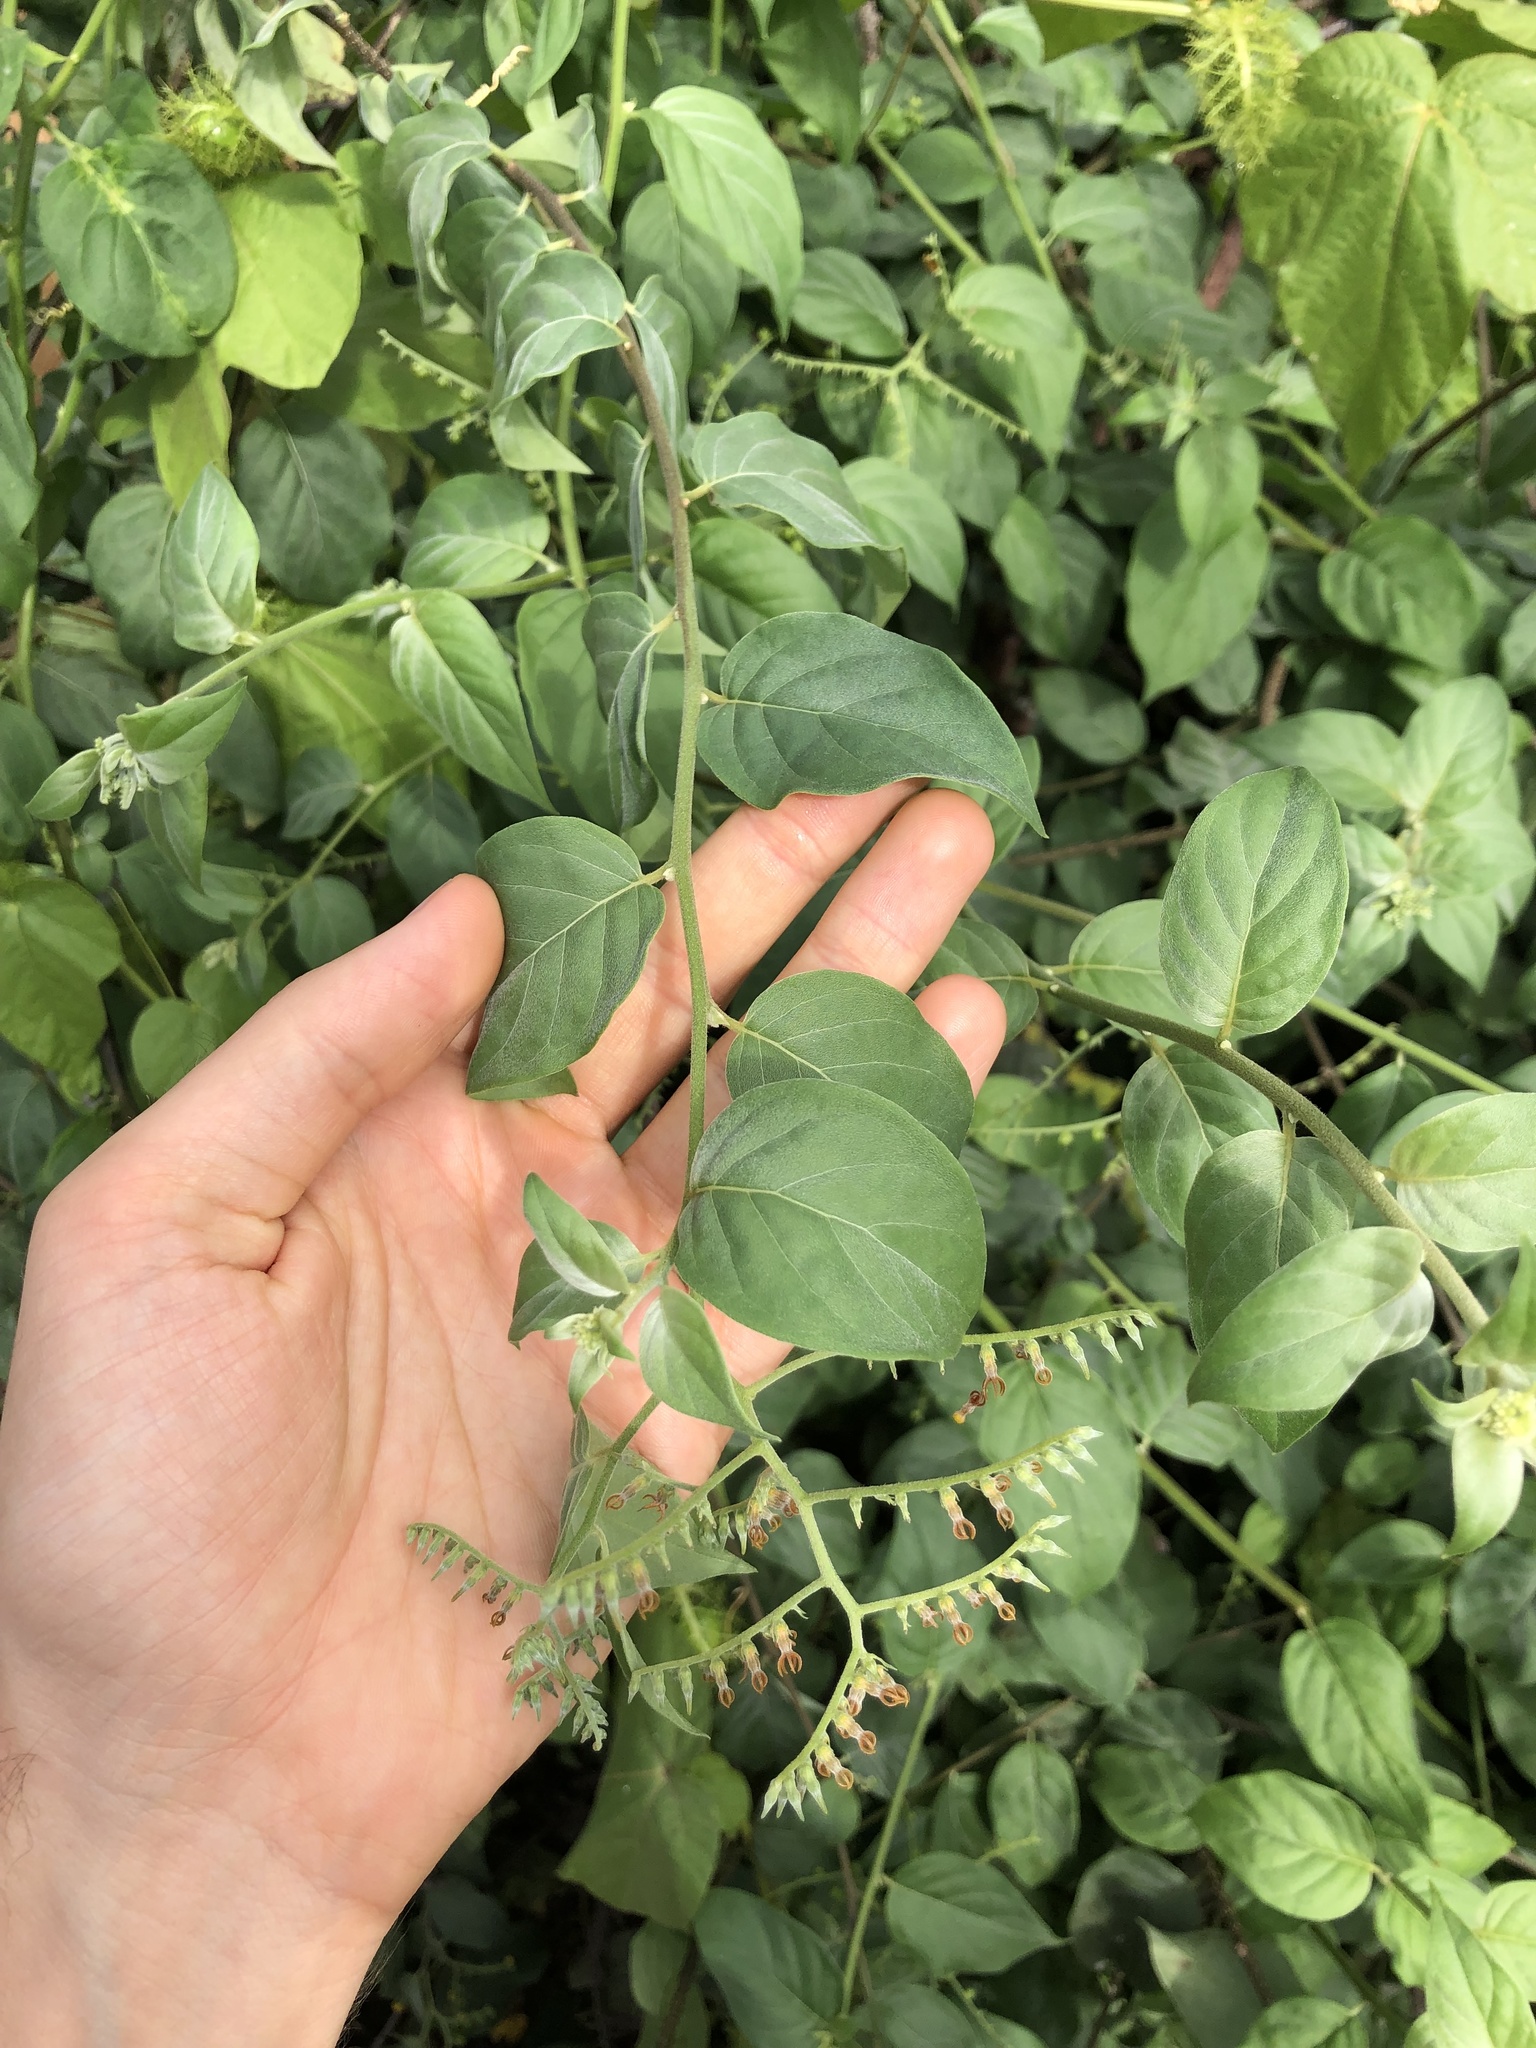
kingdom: Plantae
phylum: Tracheophyta
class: Magnoliopsida
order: Boraginales
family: Heliotropiaceae
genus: Myriopus
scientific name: Myriopus psilostachya
